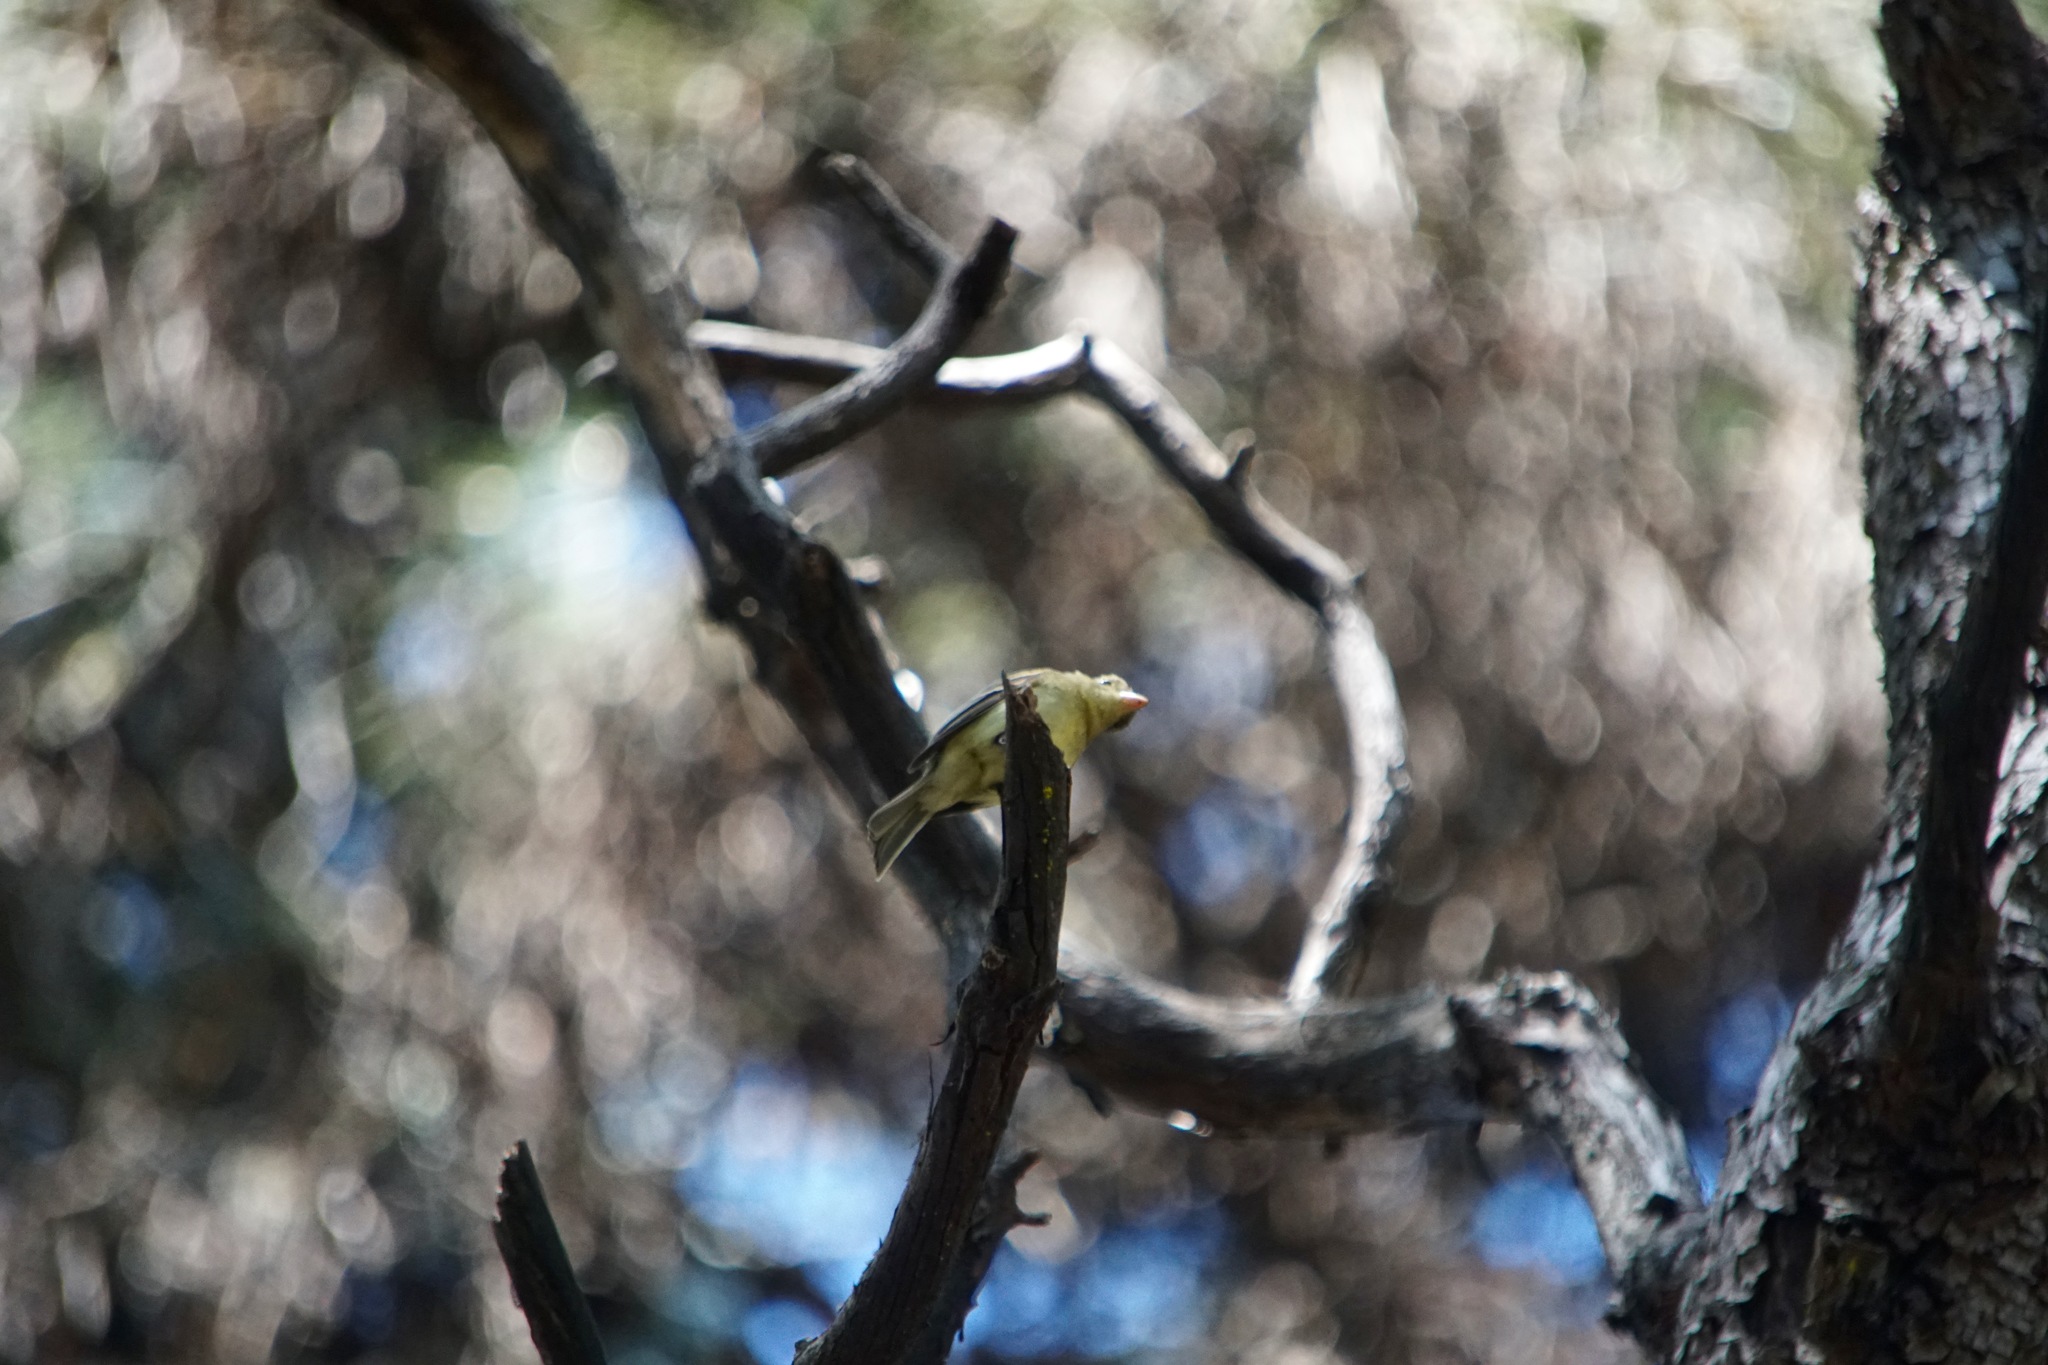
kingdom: Animalia
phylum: Chordata
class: Aves
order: Passeriformes
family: Tyrannidae
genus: Empidonax
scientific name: Empidonax difficilis
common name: Pacific-slope flycatcher
